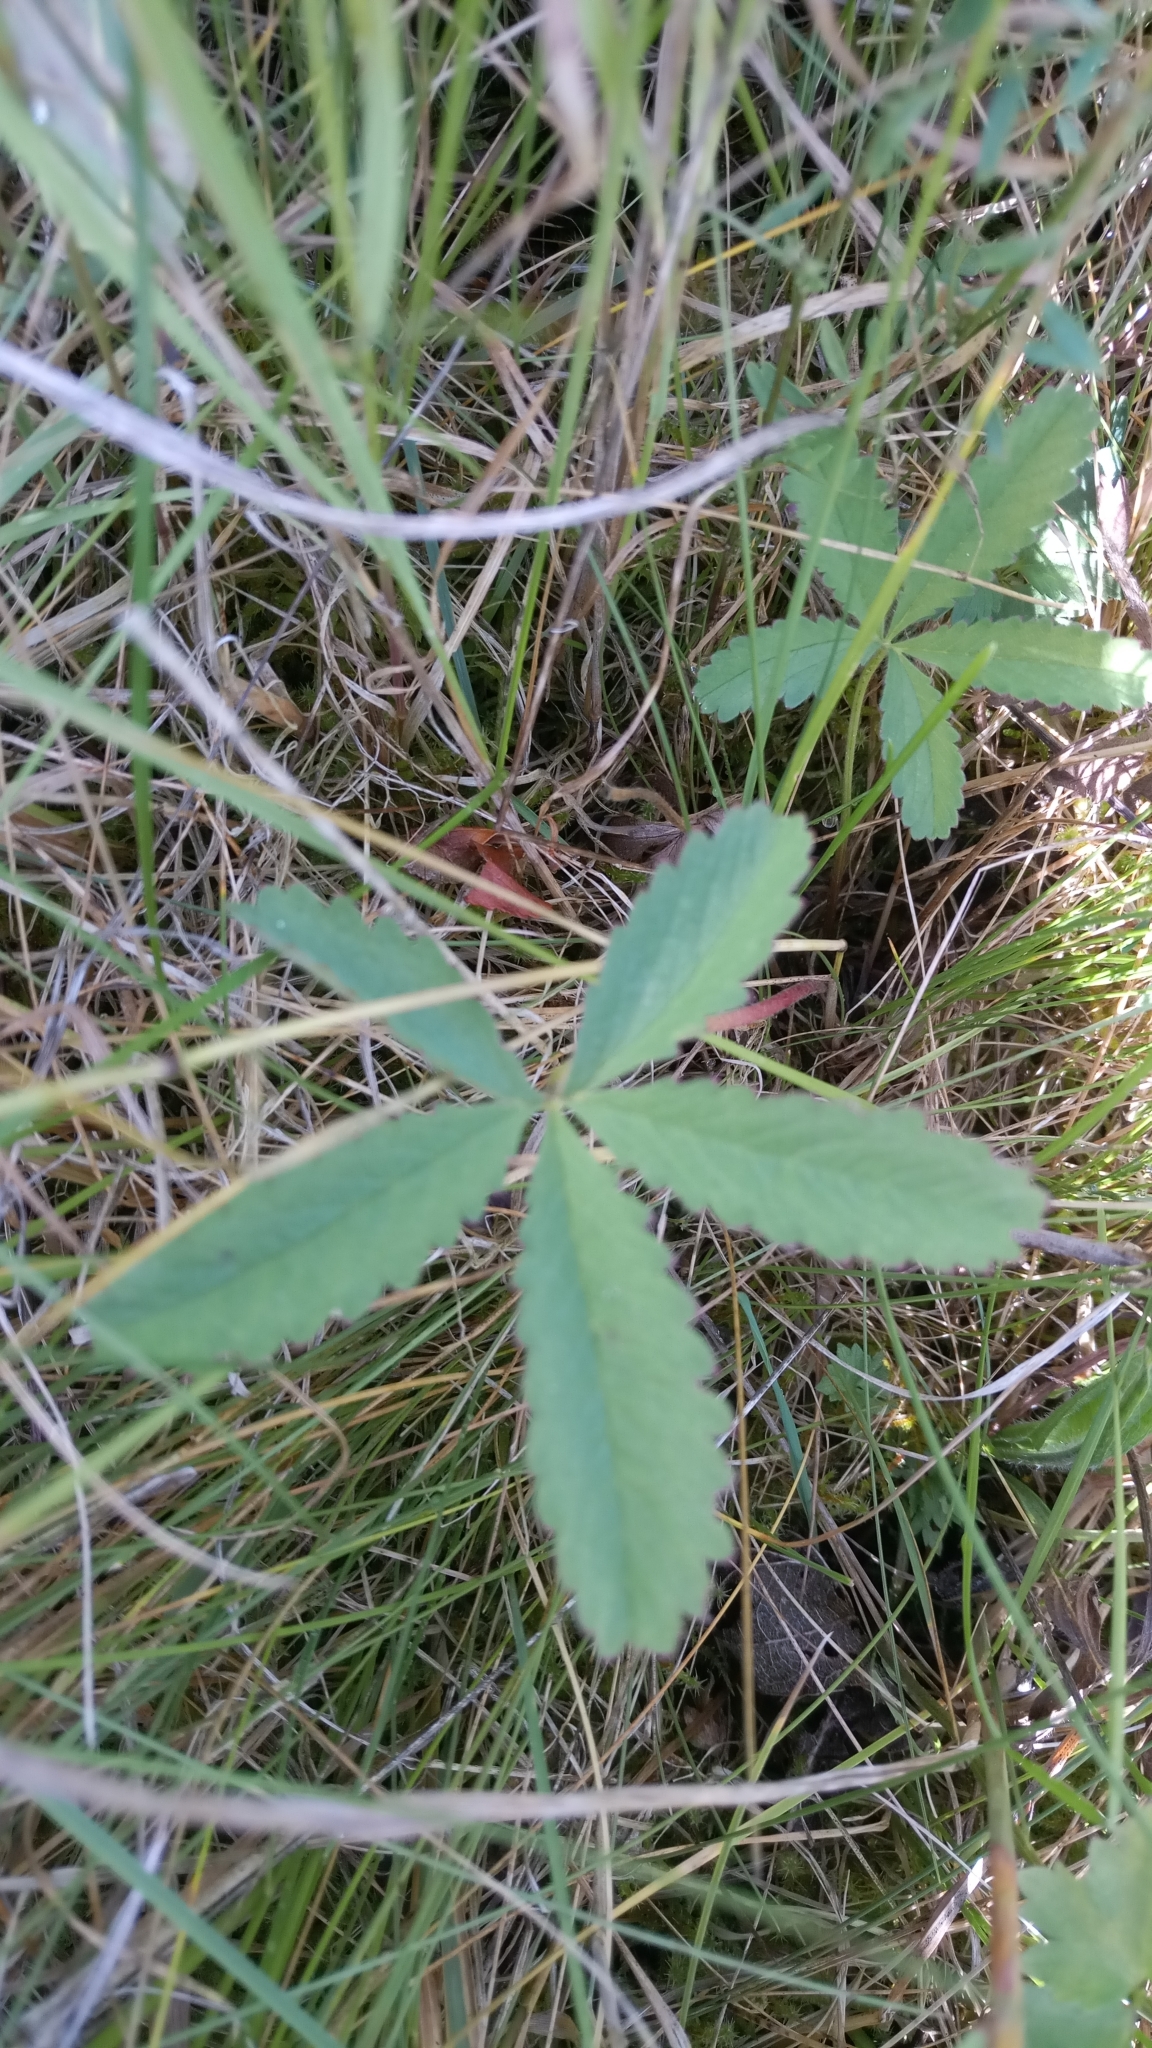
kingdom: Plantae
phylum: Tracheophyta
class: Magnoliopsida
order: Rosales
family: Rosaceae
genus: Potentilla
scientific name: Potentilla reptans
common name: Creeping cinquefoil
